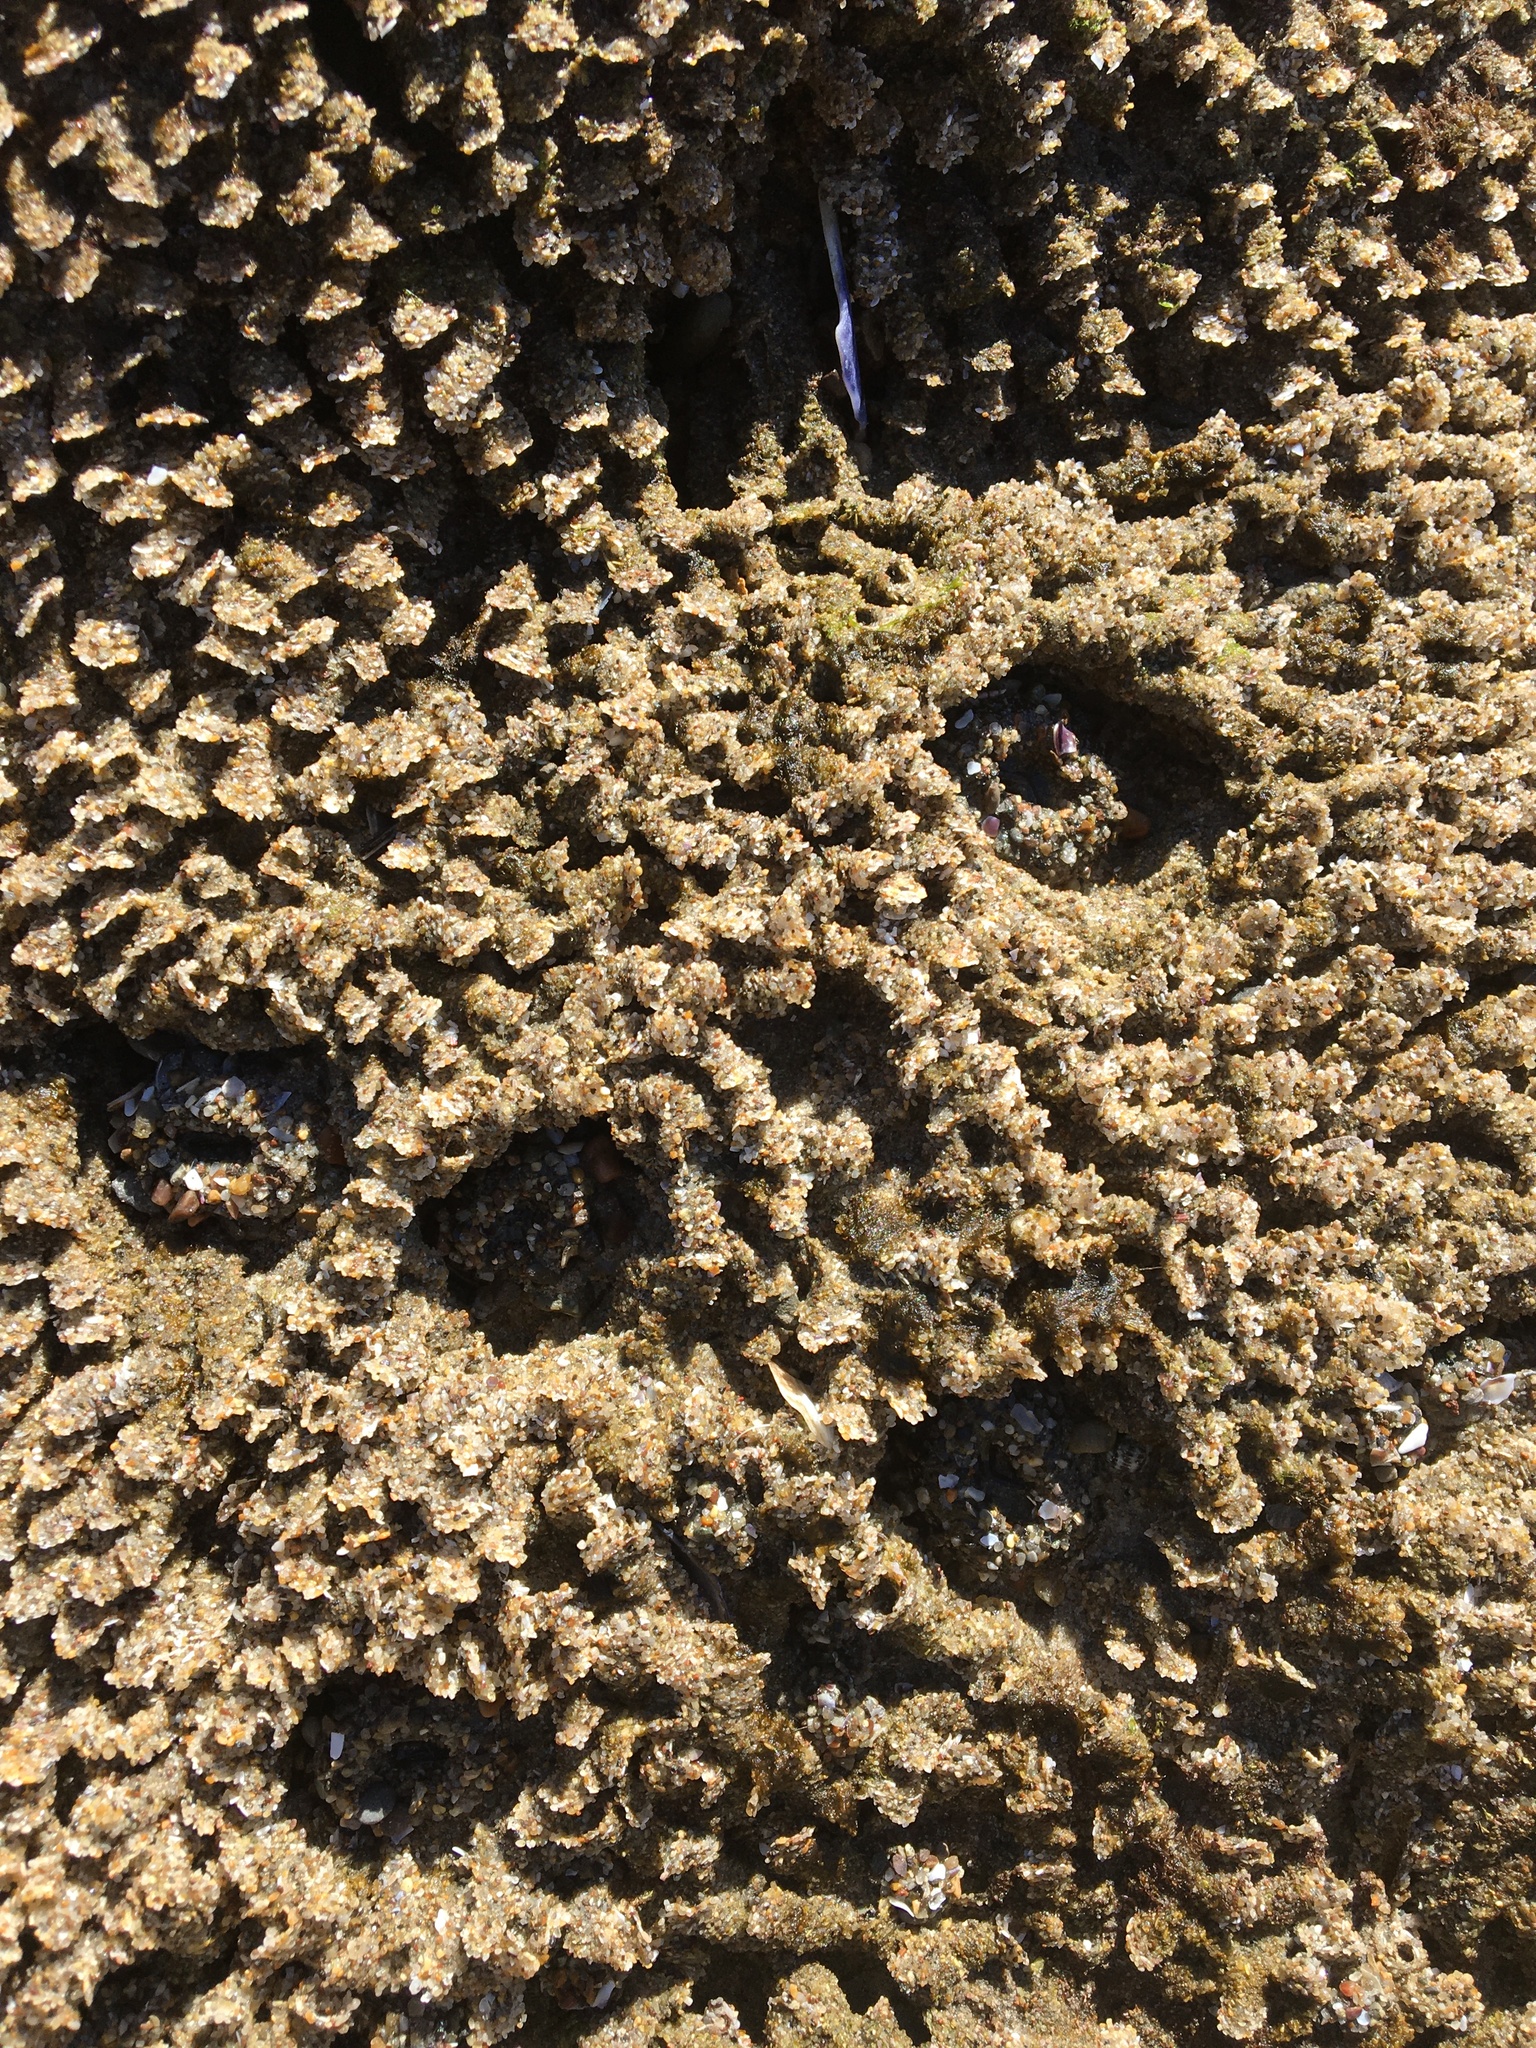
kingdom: Animalia
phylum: Cnidaria
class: Anthozoa
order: Actiniaria
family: Actiniidae
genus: Anthopleura
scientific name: Anthopleura elegantissima
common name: Clonal anemone
